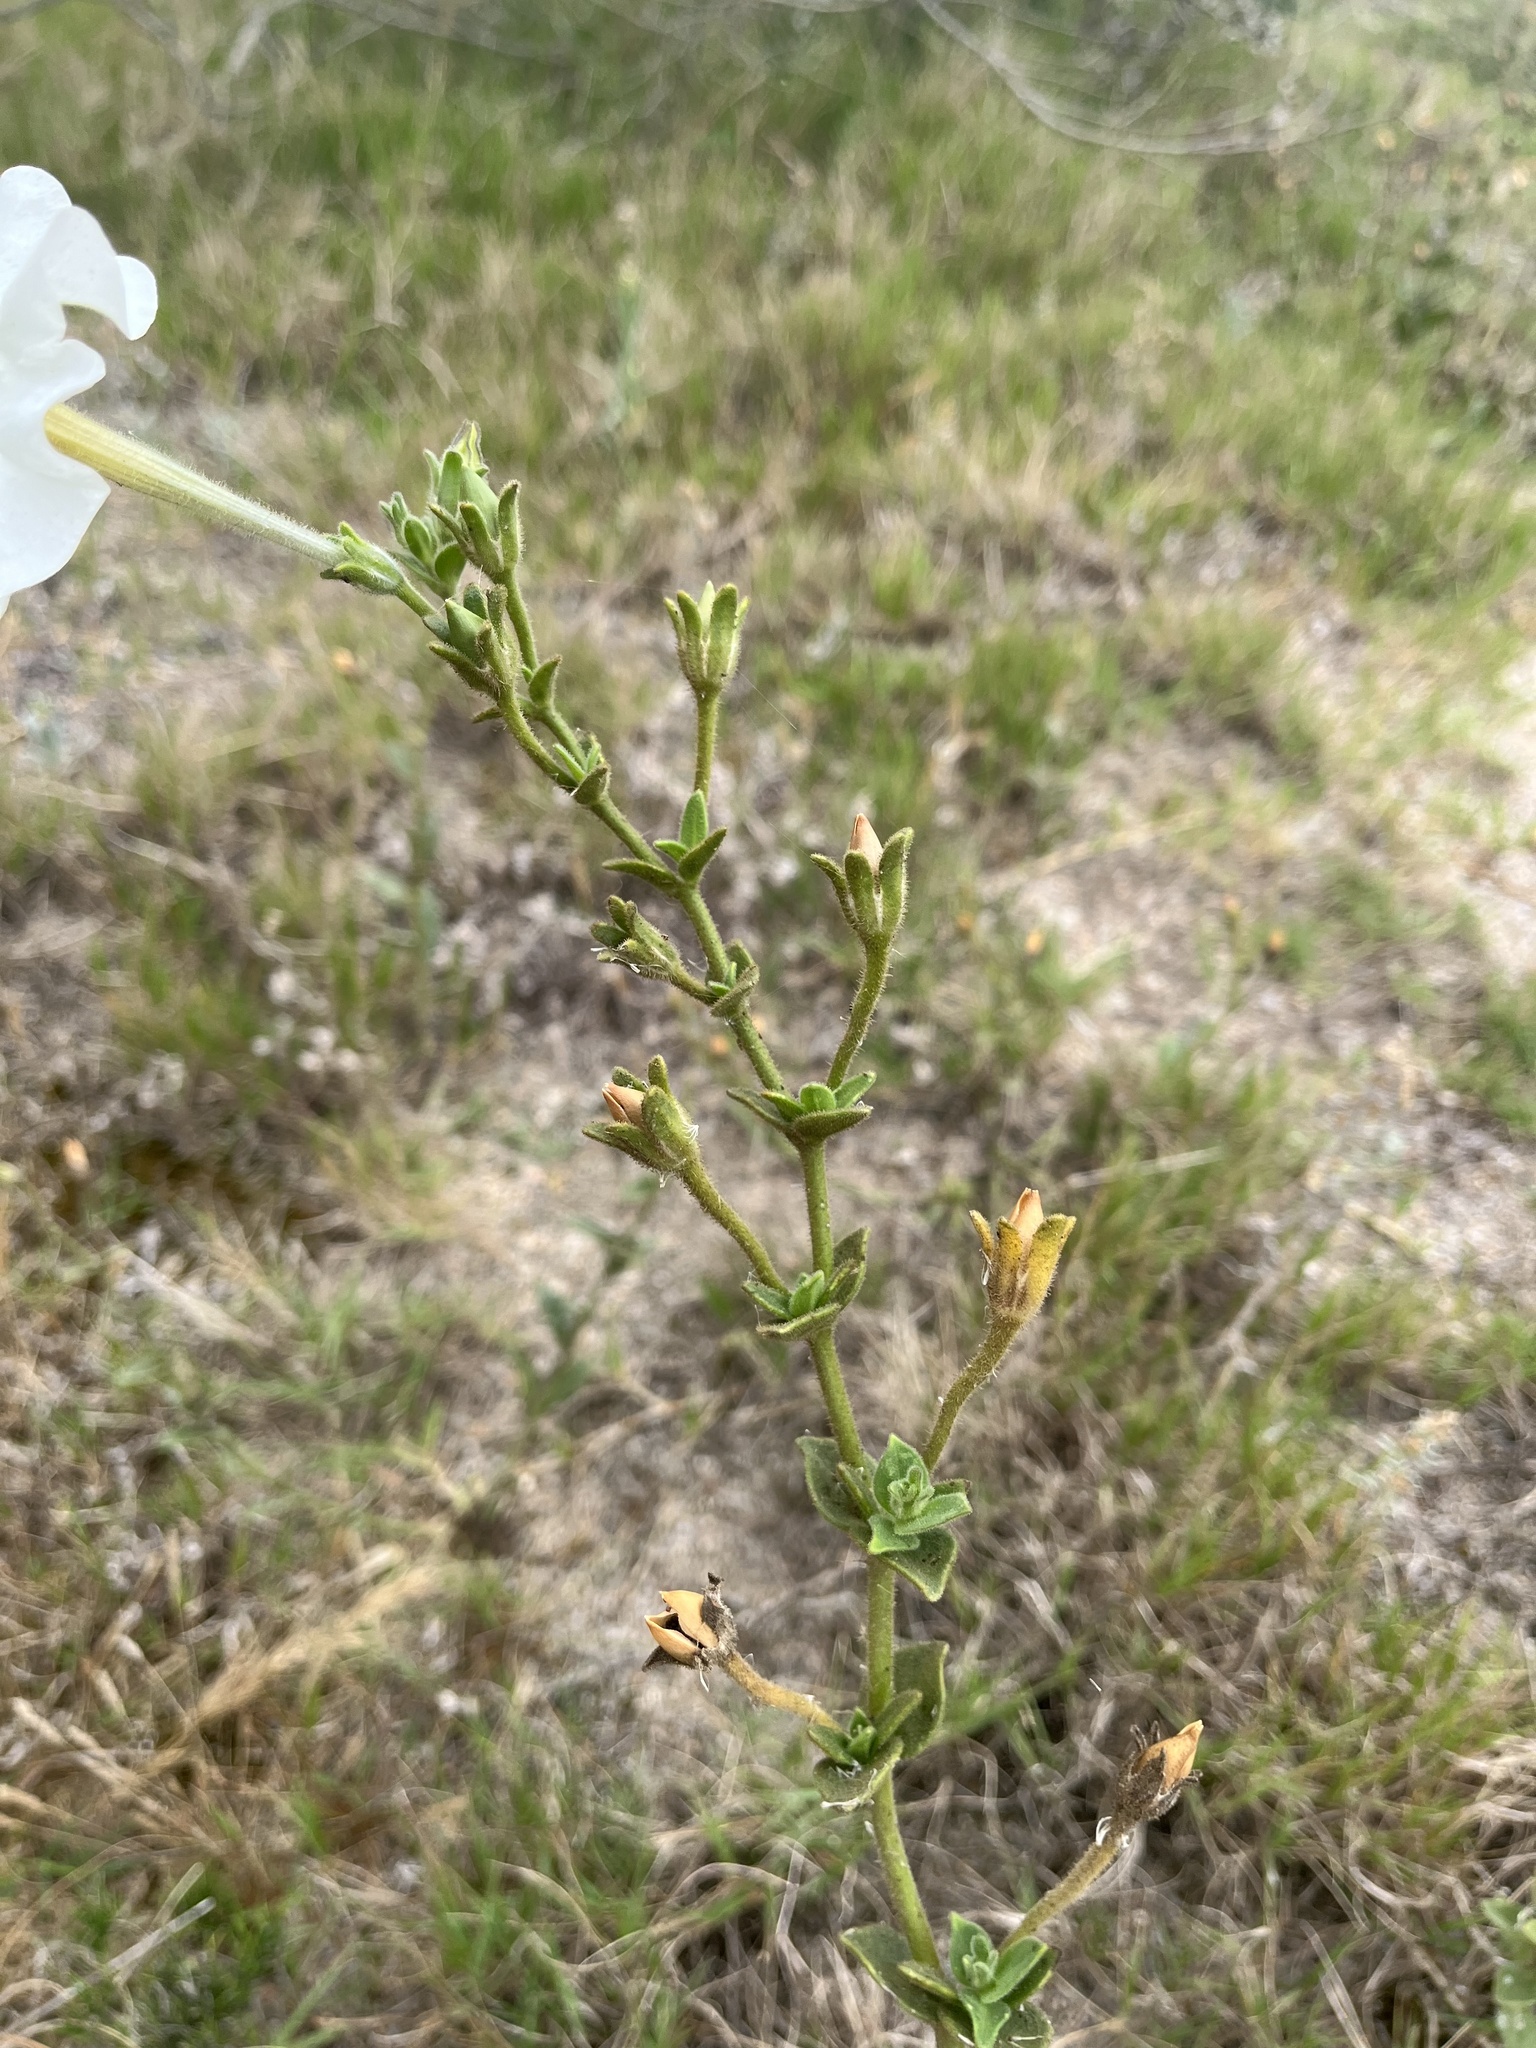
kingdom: Plantae
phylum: Tracheophyta
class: Magnoliopsida
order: Solanales
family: Solanaceae
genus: Petunia
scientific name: Petunia axillaris
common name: Large white petunia
